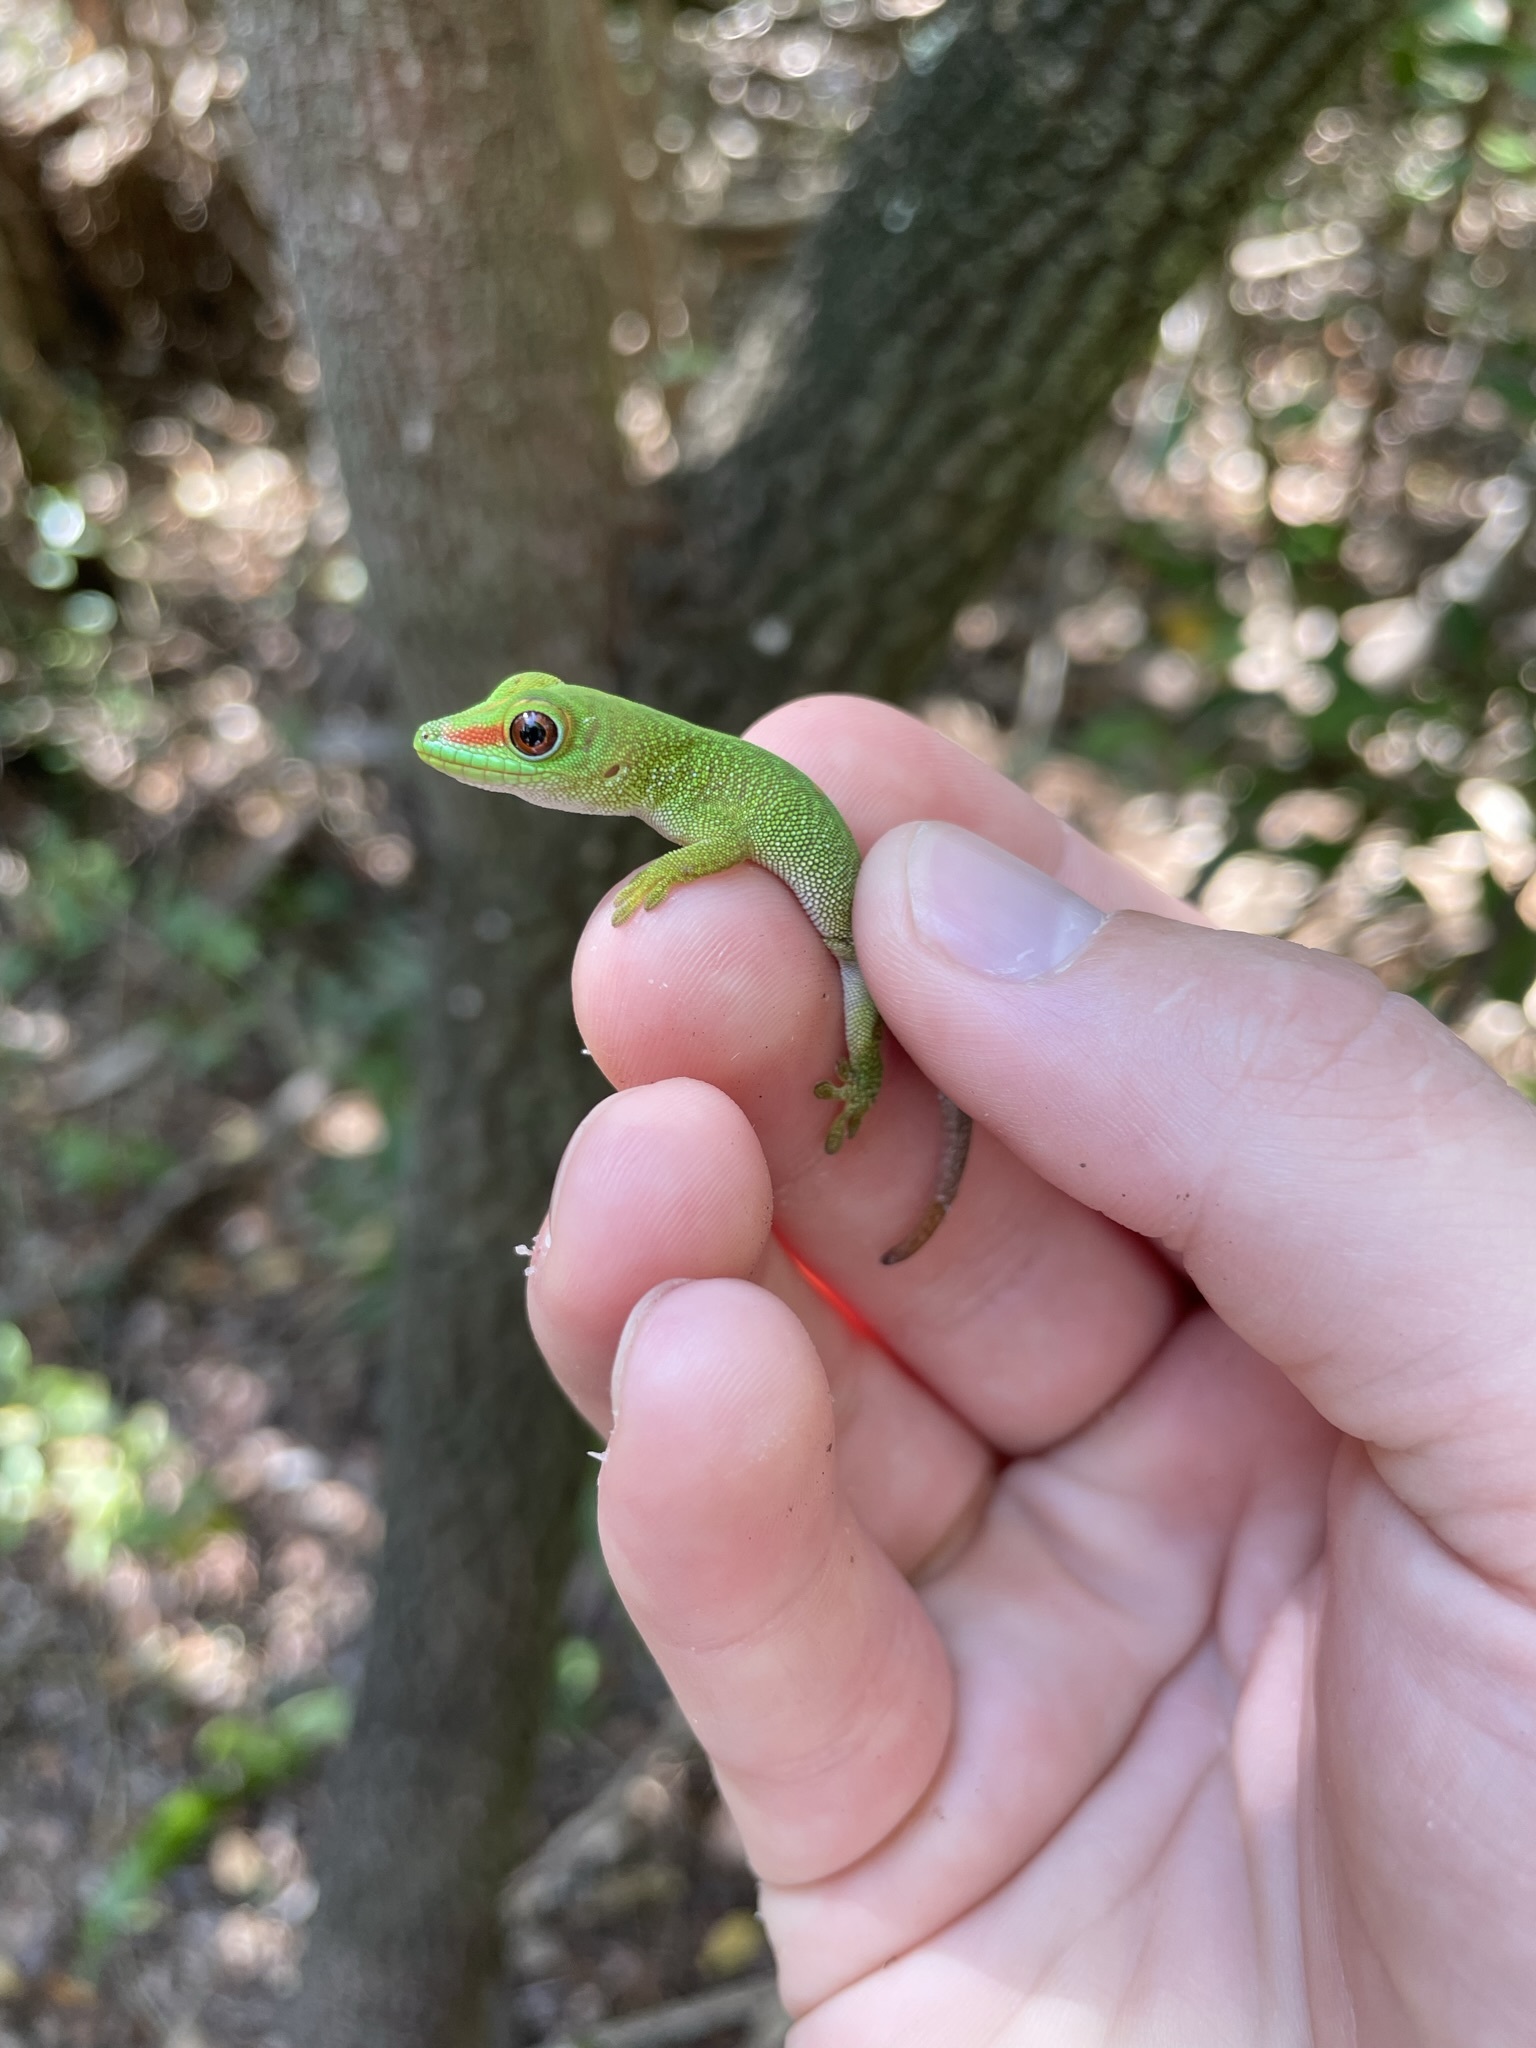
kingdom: Animalia
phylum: Chordata
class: Squamata
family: Gekkonidae
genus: Phelsuma
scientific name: Phelsuma grandis
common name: Madagascar giant day gecko
